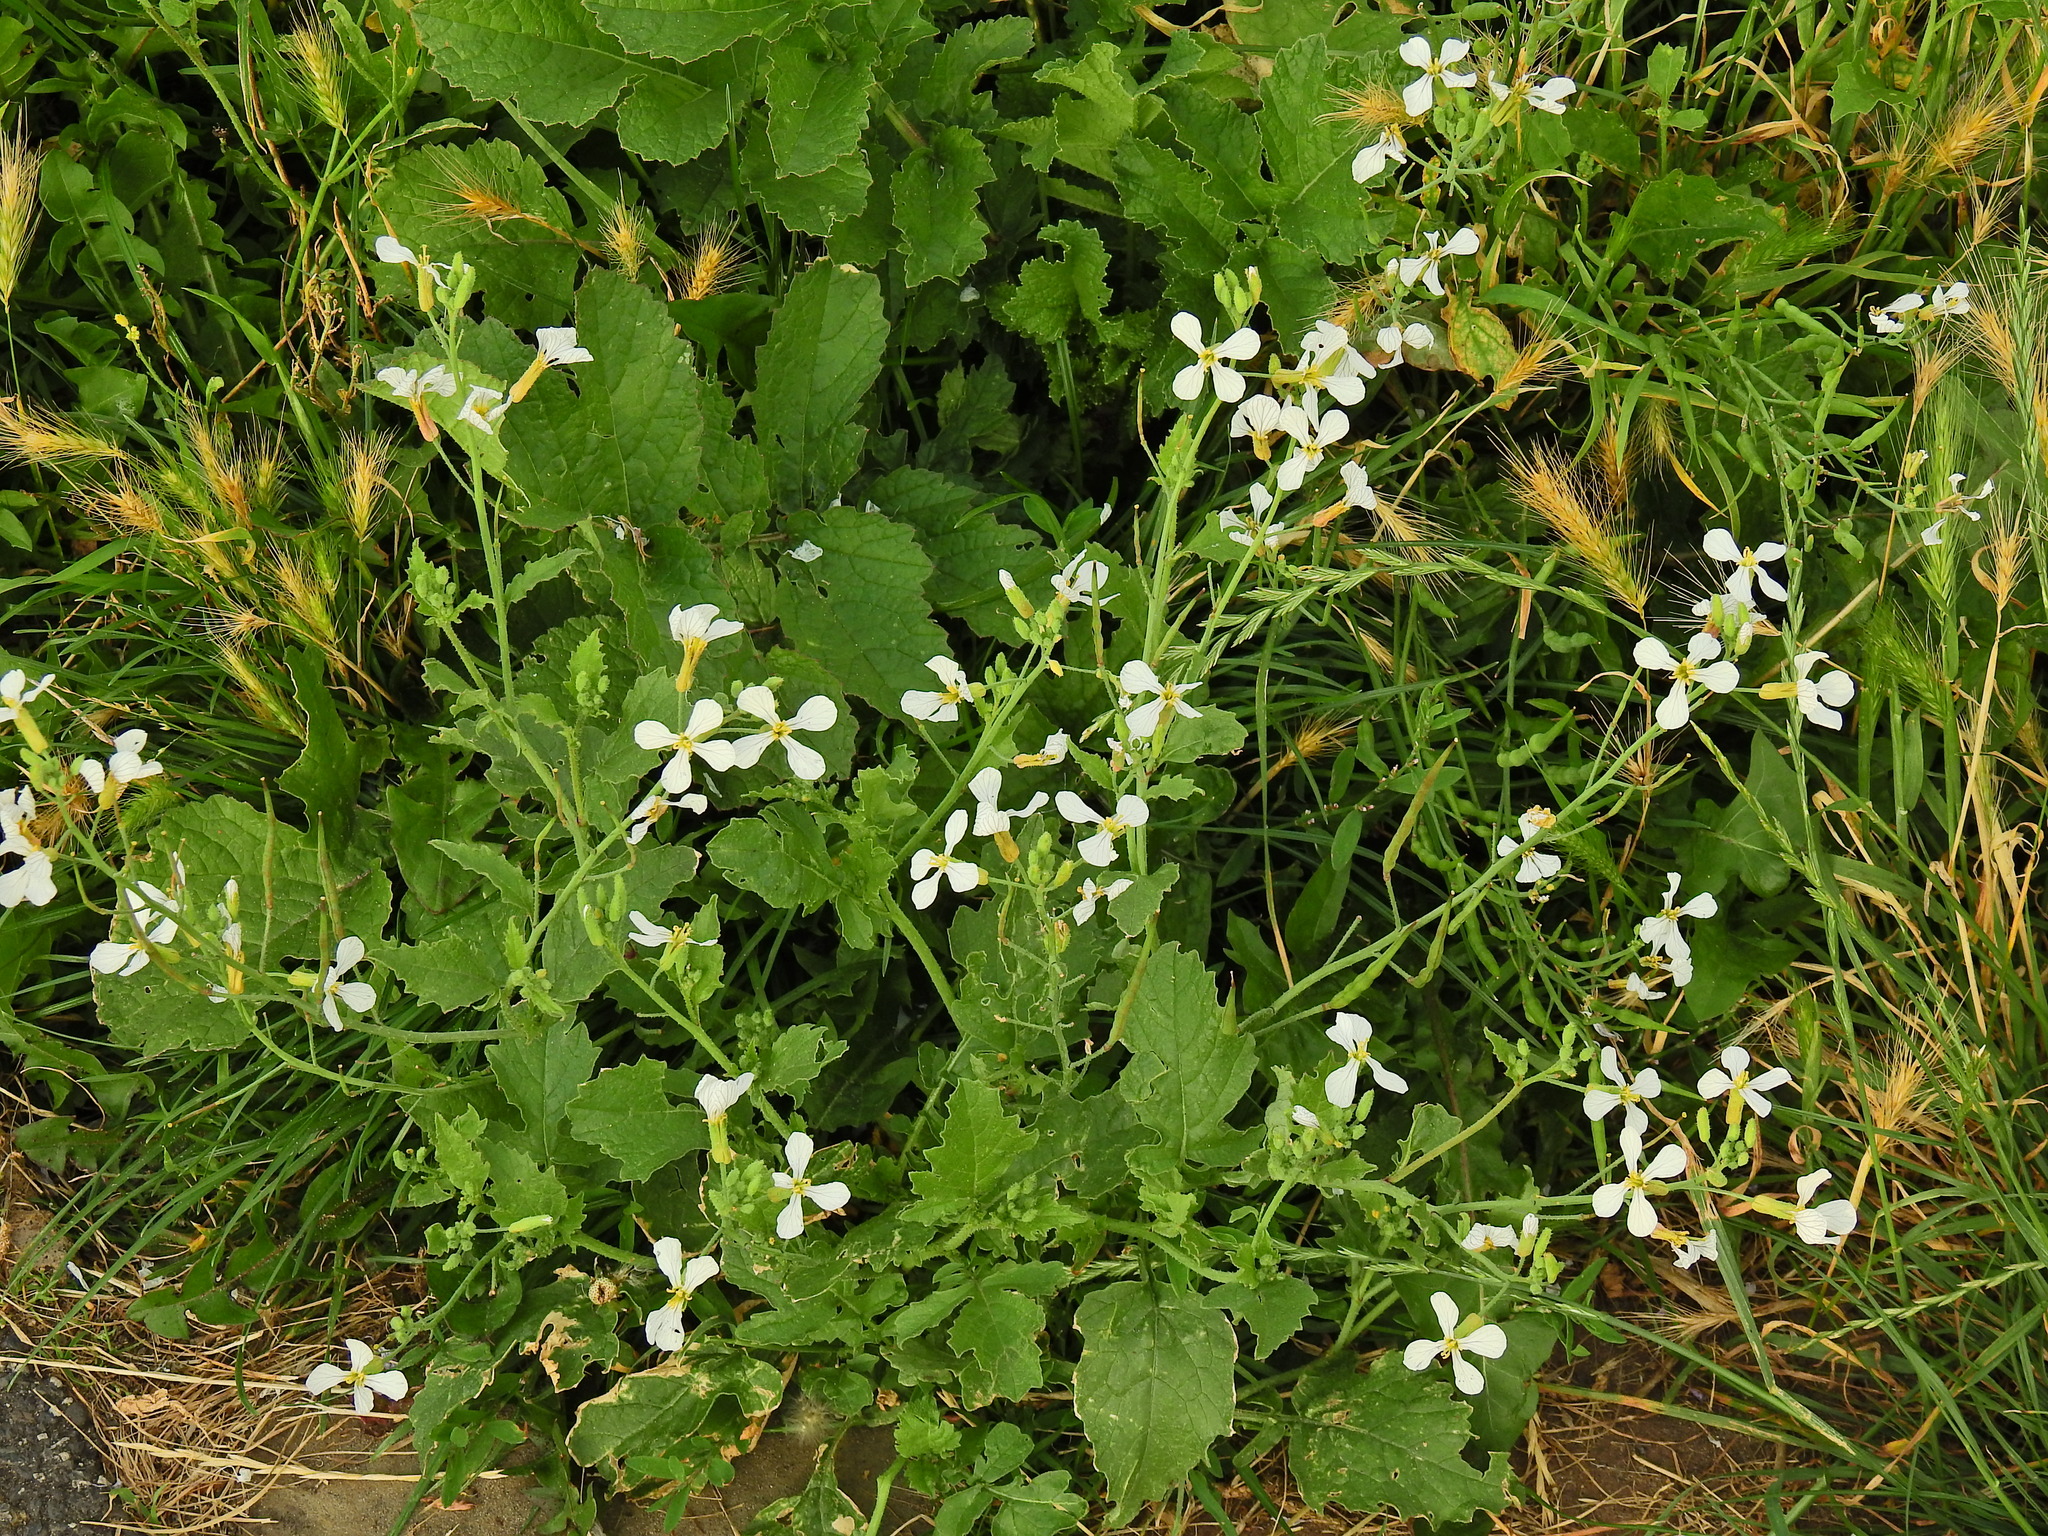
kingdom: Plantae
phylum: Tracheophyta
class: Magnoliopsida
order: Brassicales
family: Brassicaceae
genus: Raphanus
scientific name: Raphanus sativus
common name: Cultivated radish
